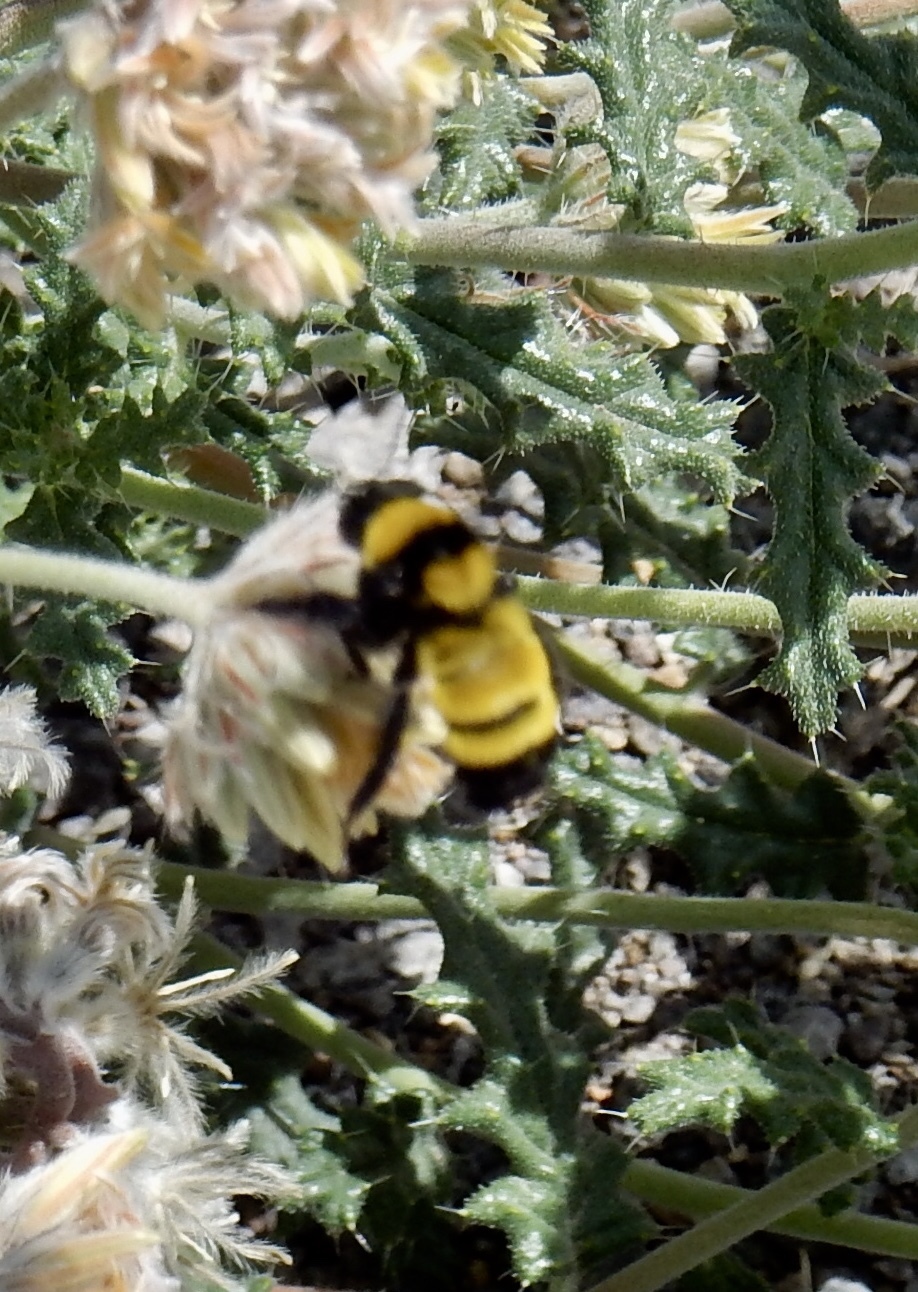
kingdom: Animalia
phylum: Arthropoda
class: Insecta
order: Hymenoptera
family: Apidae
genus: Bombus
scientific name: Bombus sonorus
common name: Sonoran bumble bee
